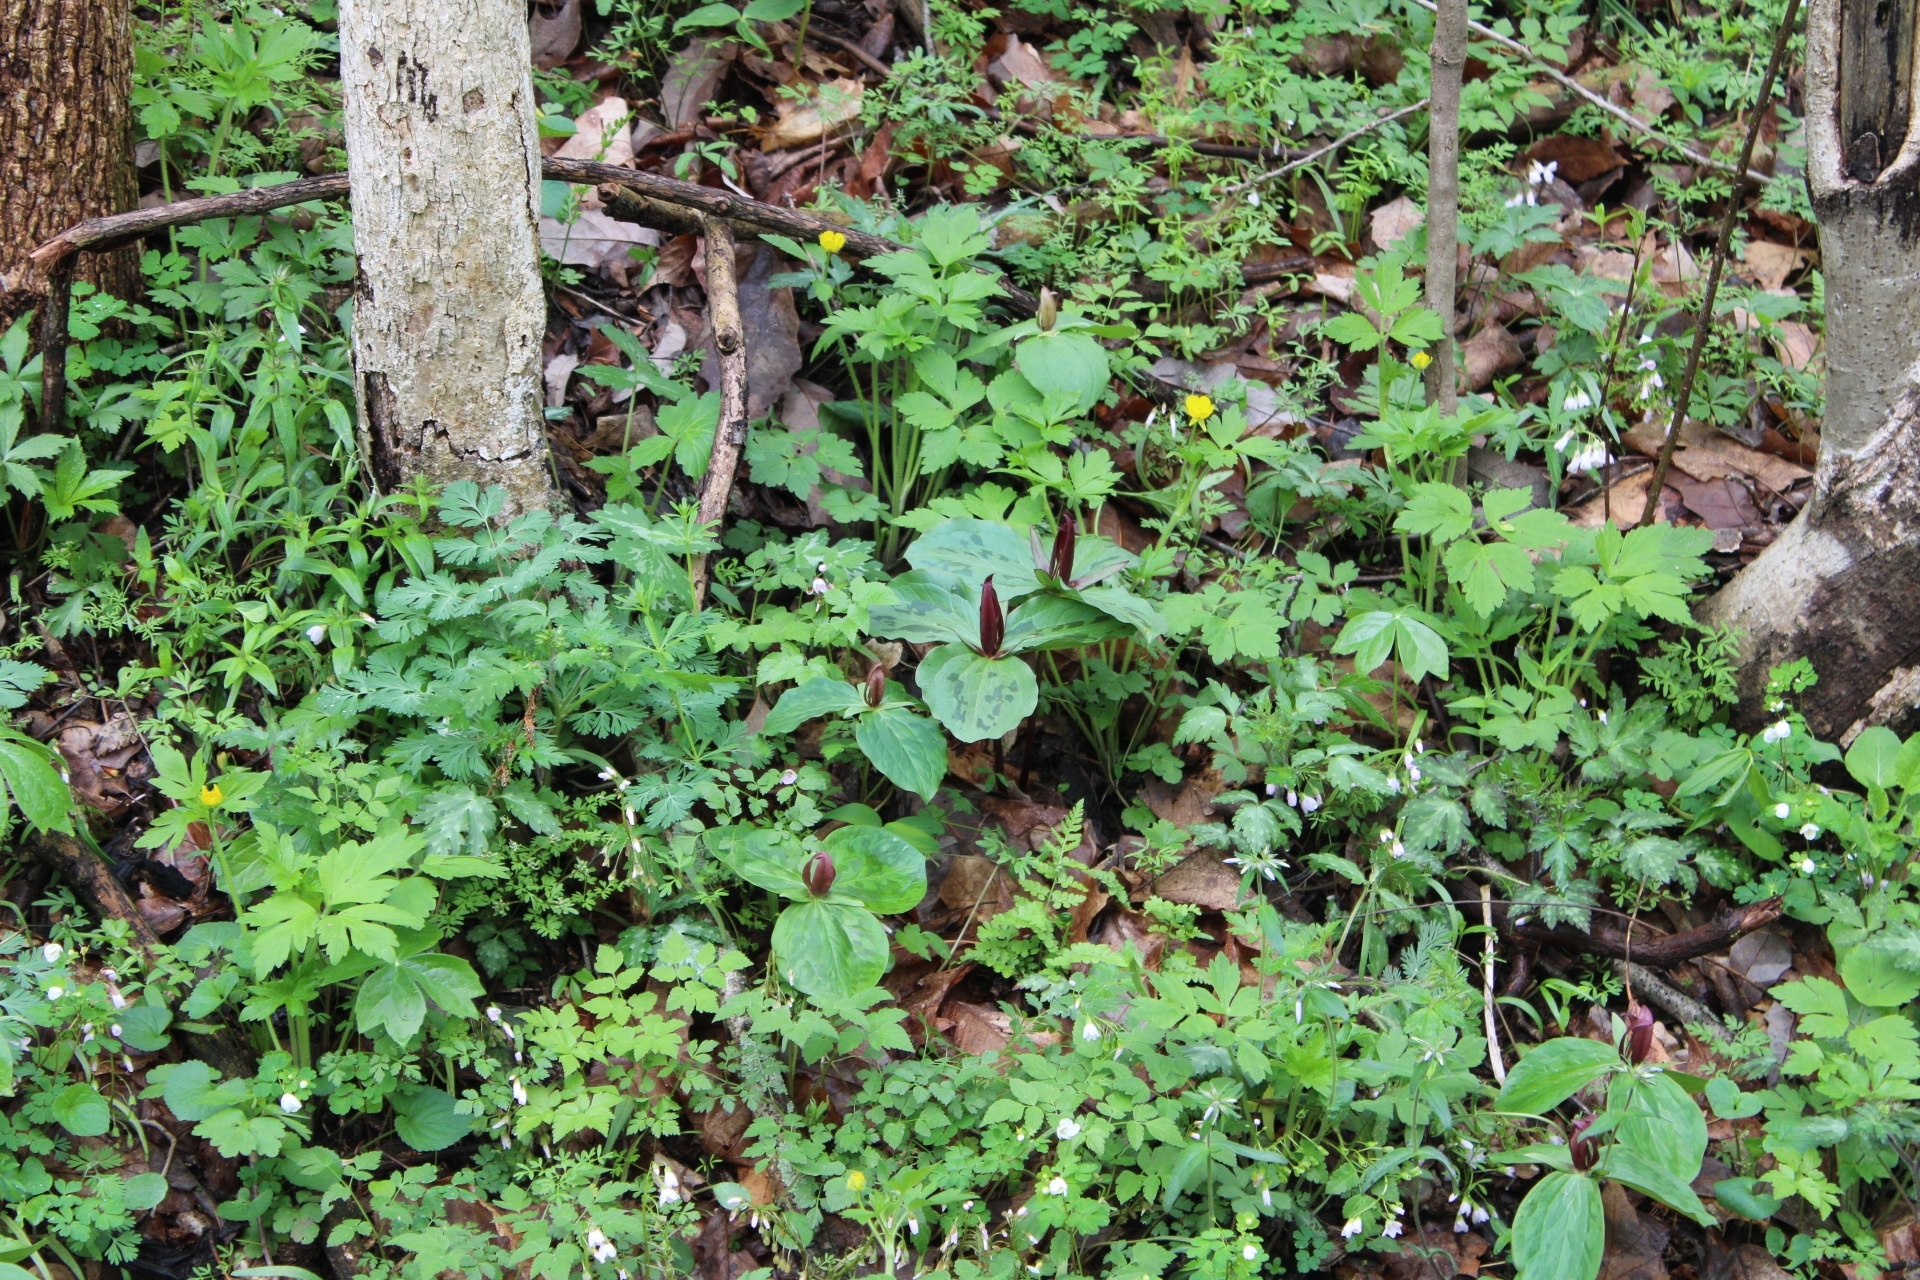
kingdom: Plantae
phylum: Tracheophyta
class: Liliopsida
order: Liliales
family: Melanthiaceae
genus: Trillium
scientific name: Trillium sessile
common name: Sessile trillium
